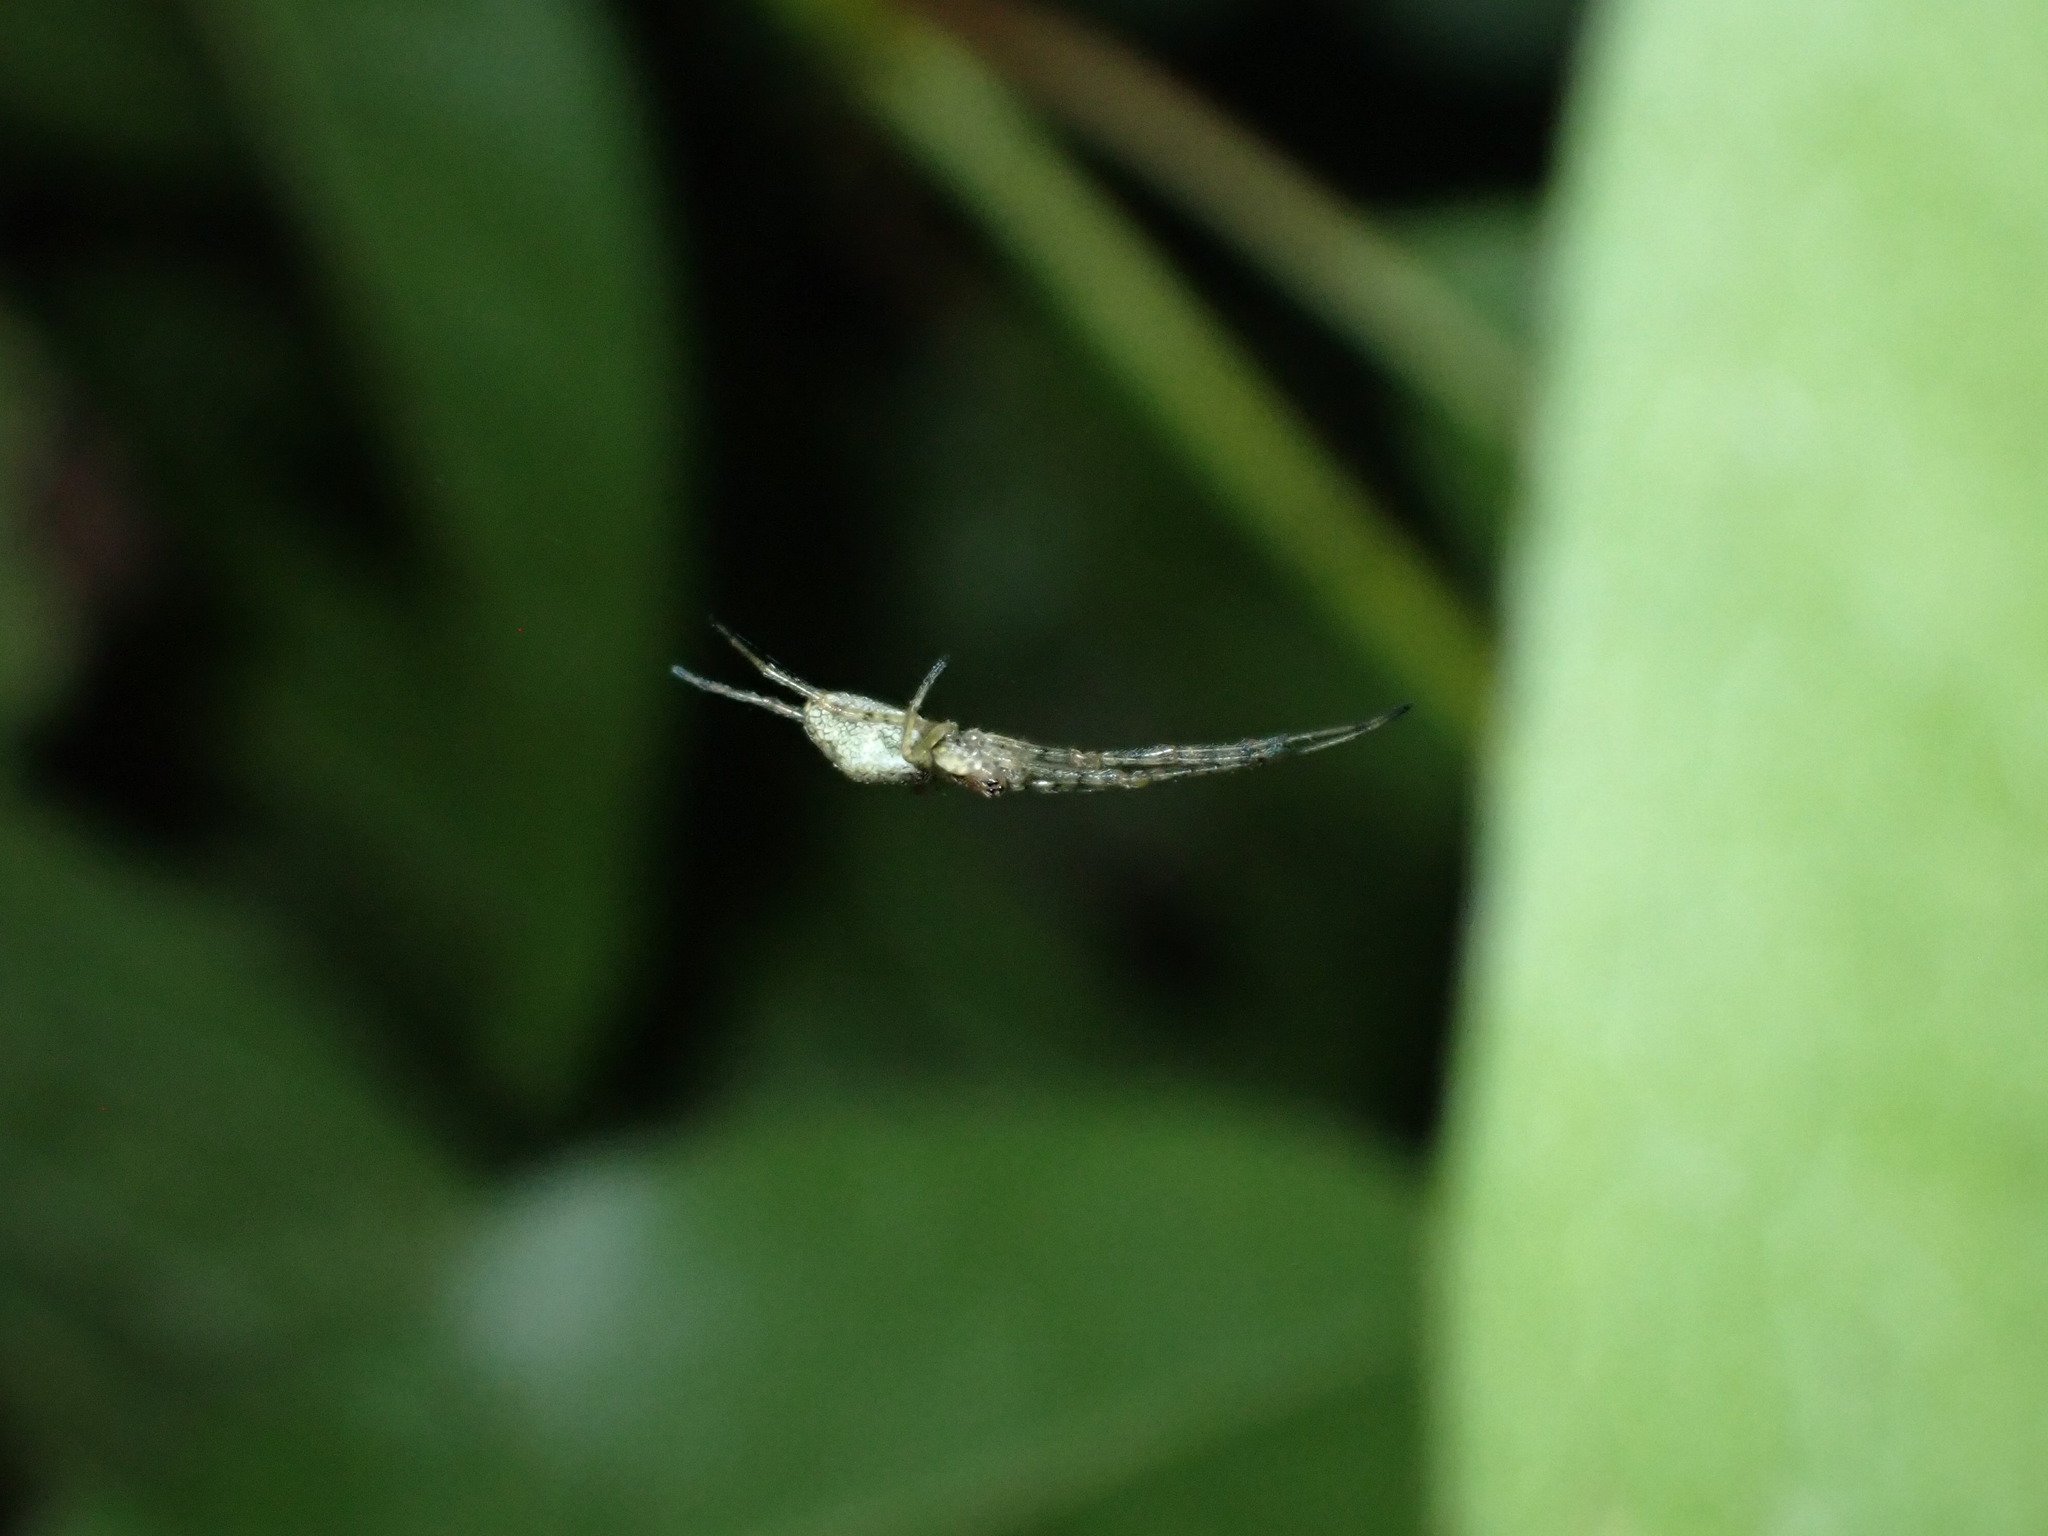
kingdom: Animalia
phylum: Arthropoda
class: Arachnida
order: Araneae
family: Tetragnathidae
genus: Tetragnatha
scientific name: Tetragnatha
